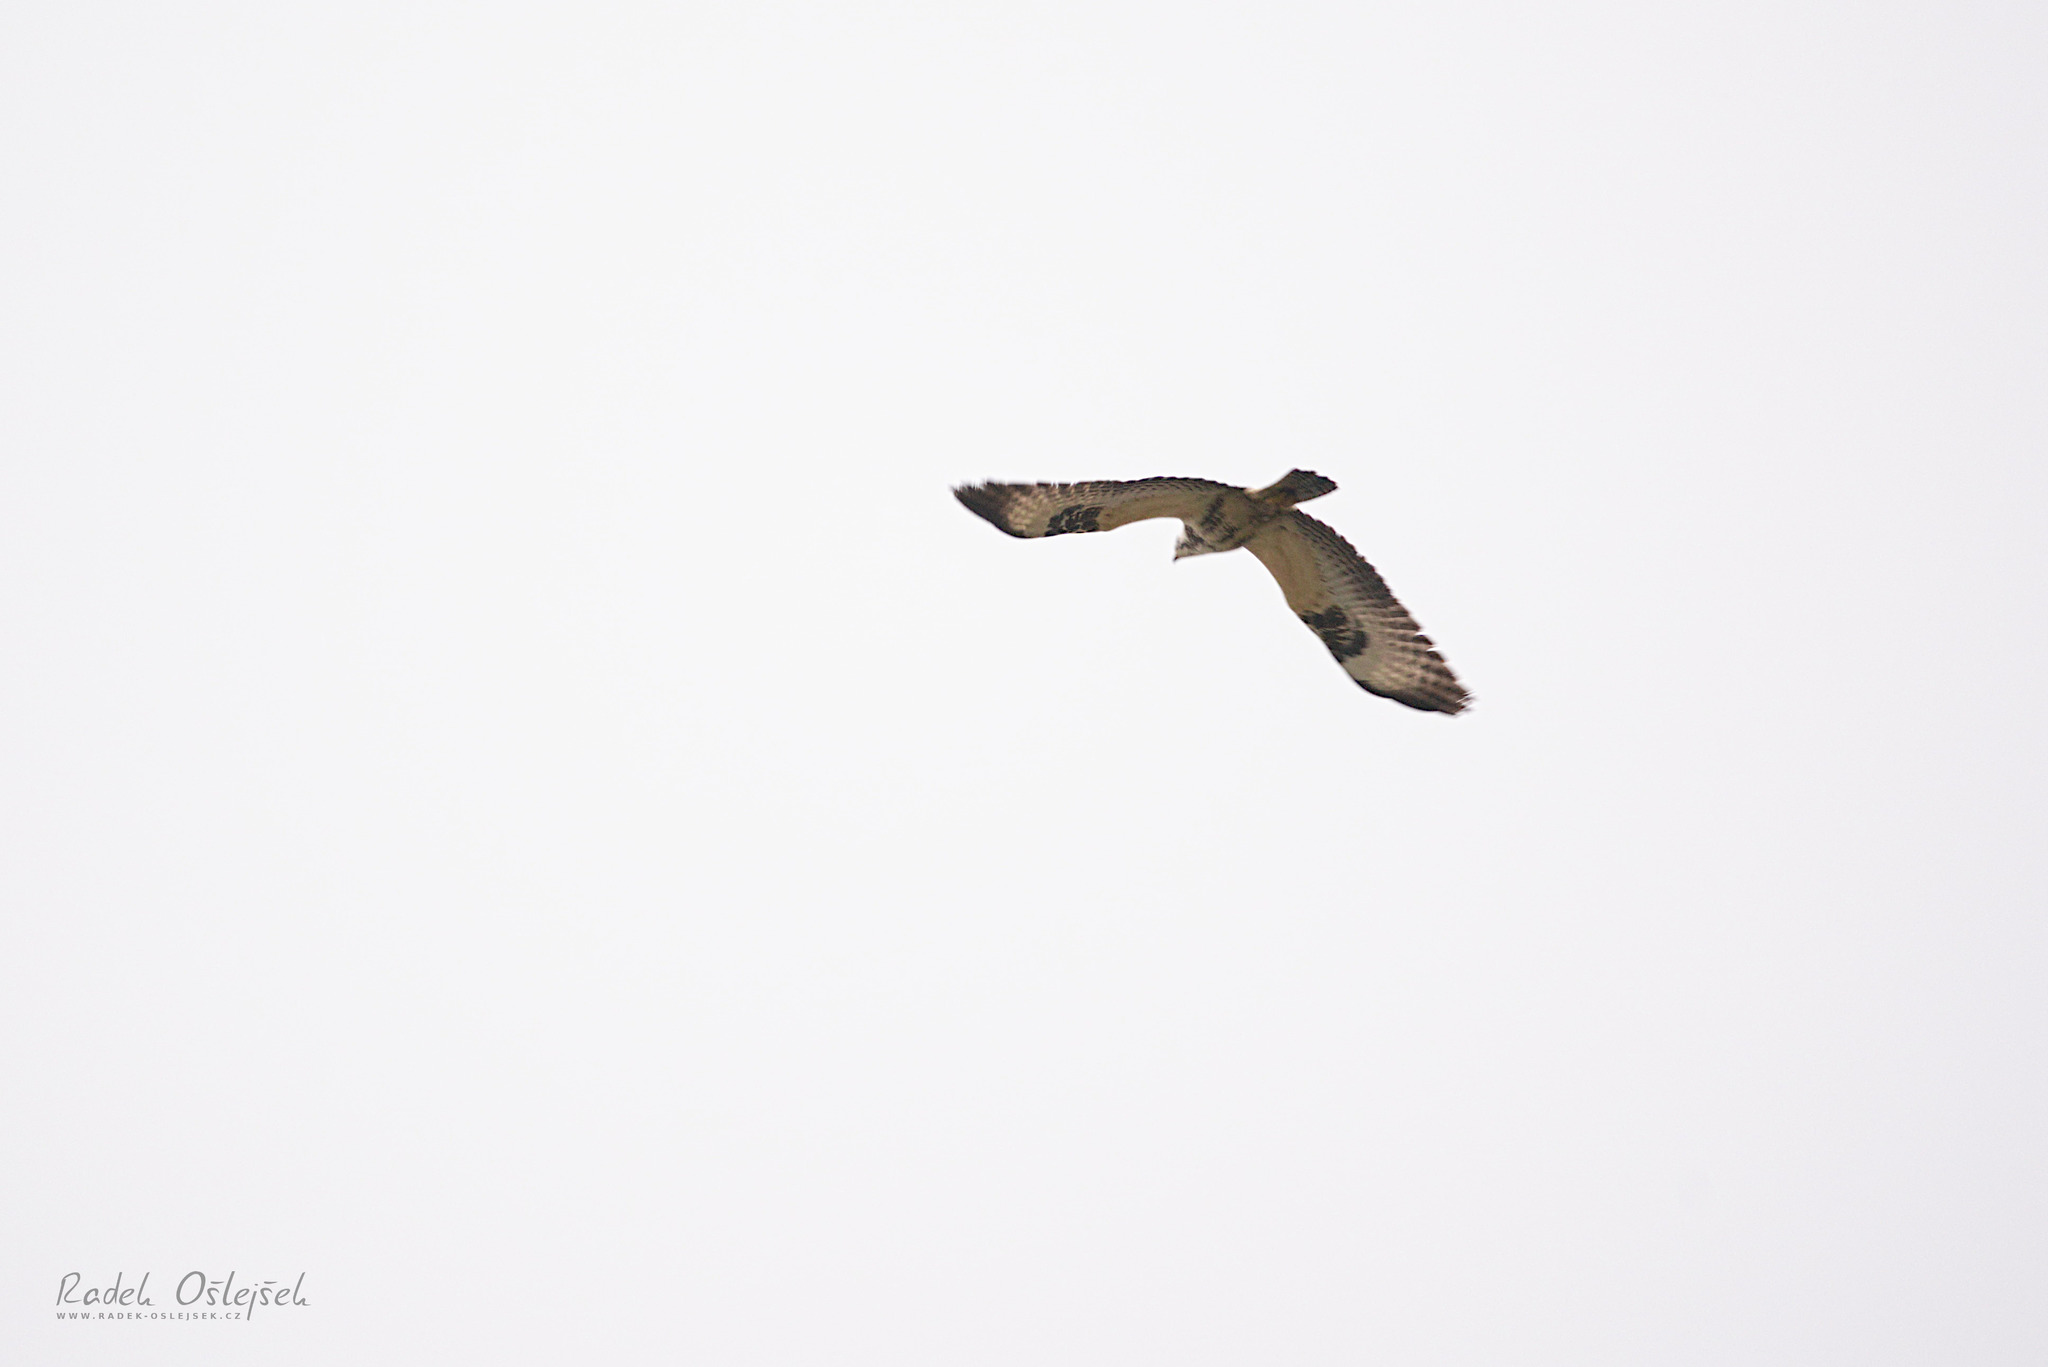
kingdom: Animalia
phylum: Chordata
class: Aves
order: Accipitriformes
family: Accipitridae
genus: Buteo
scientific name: Buteo buteo
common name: Common buzzard
